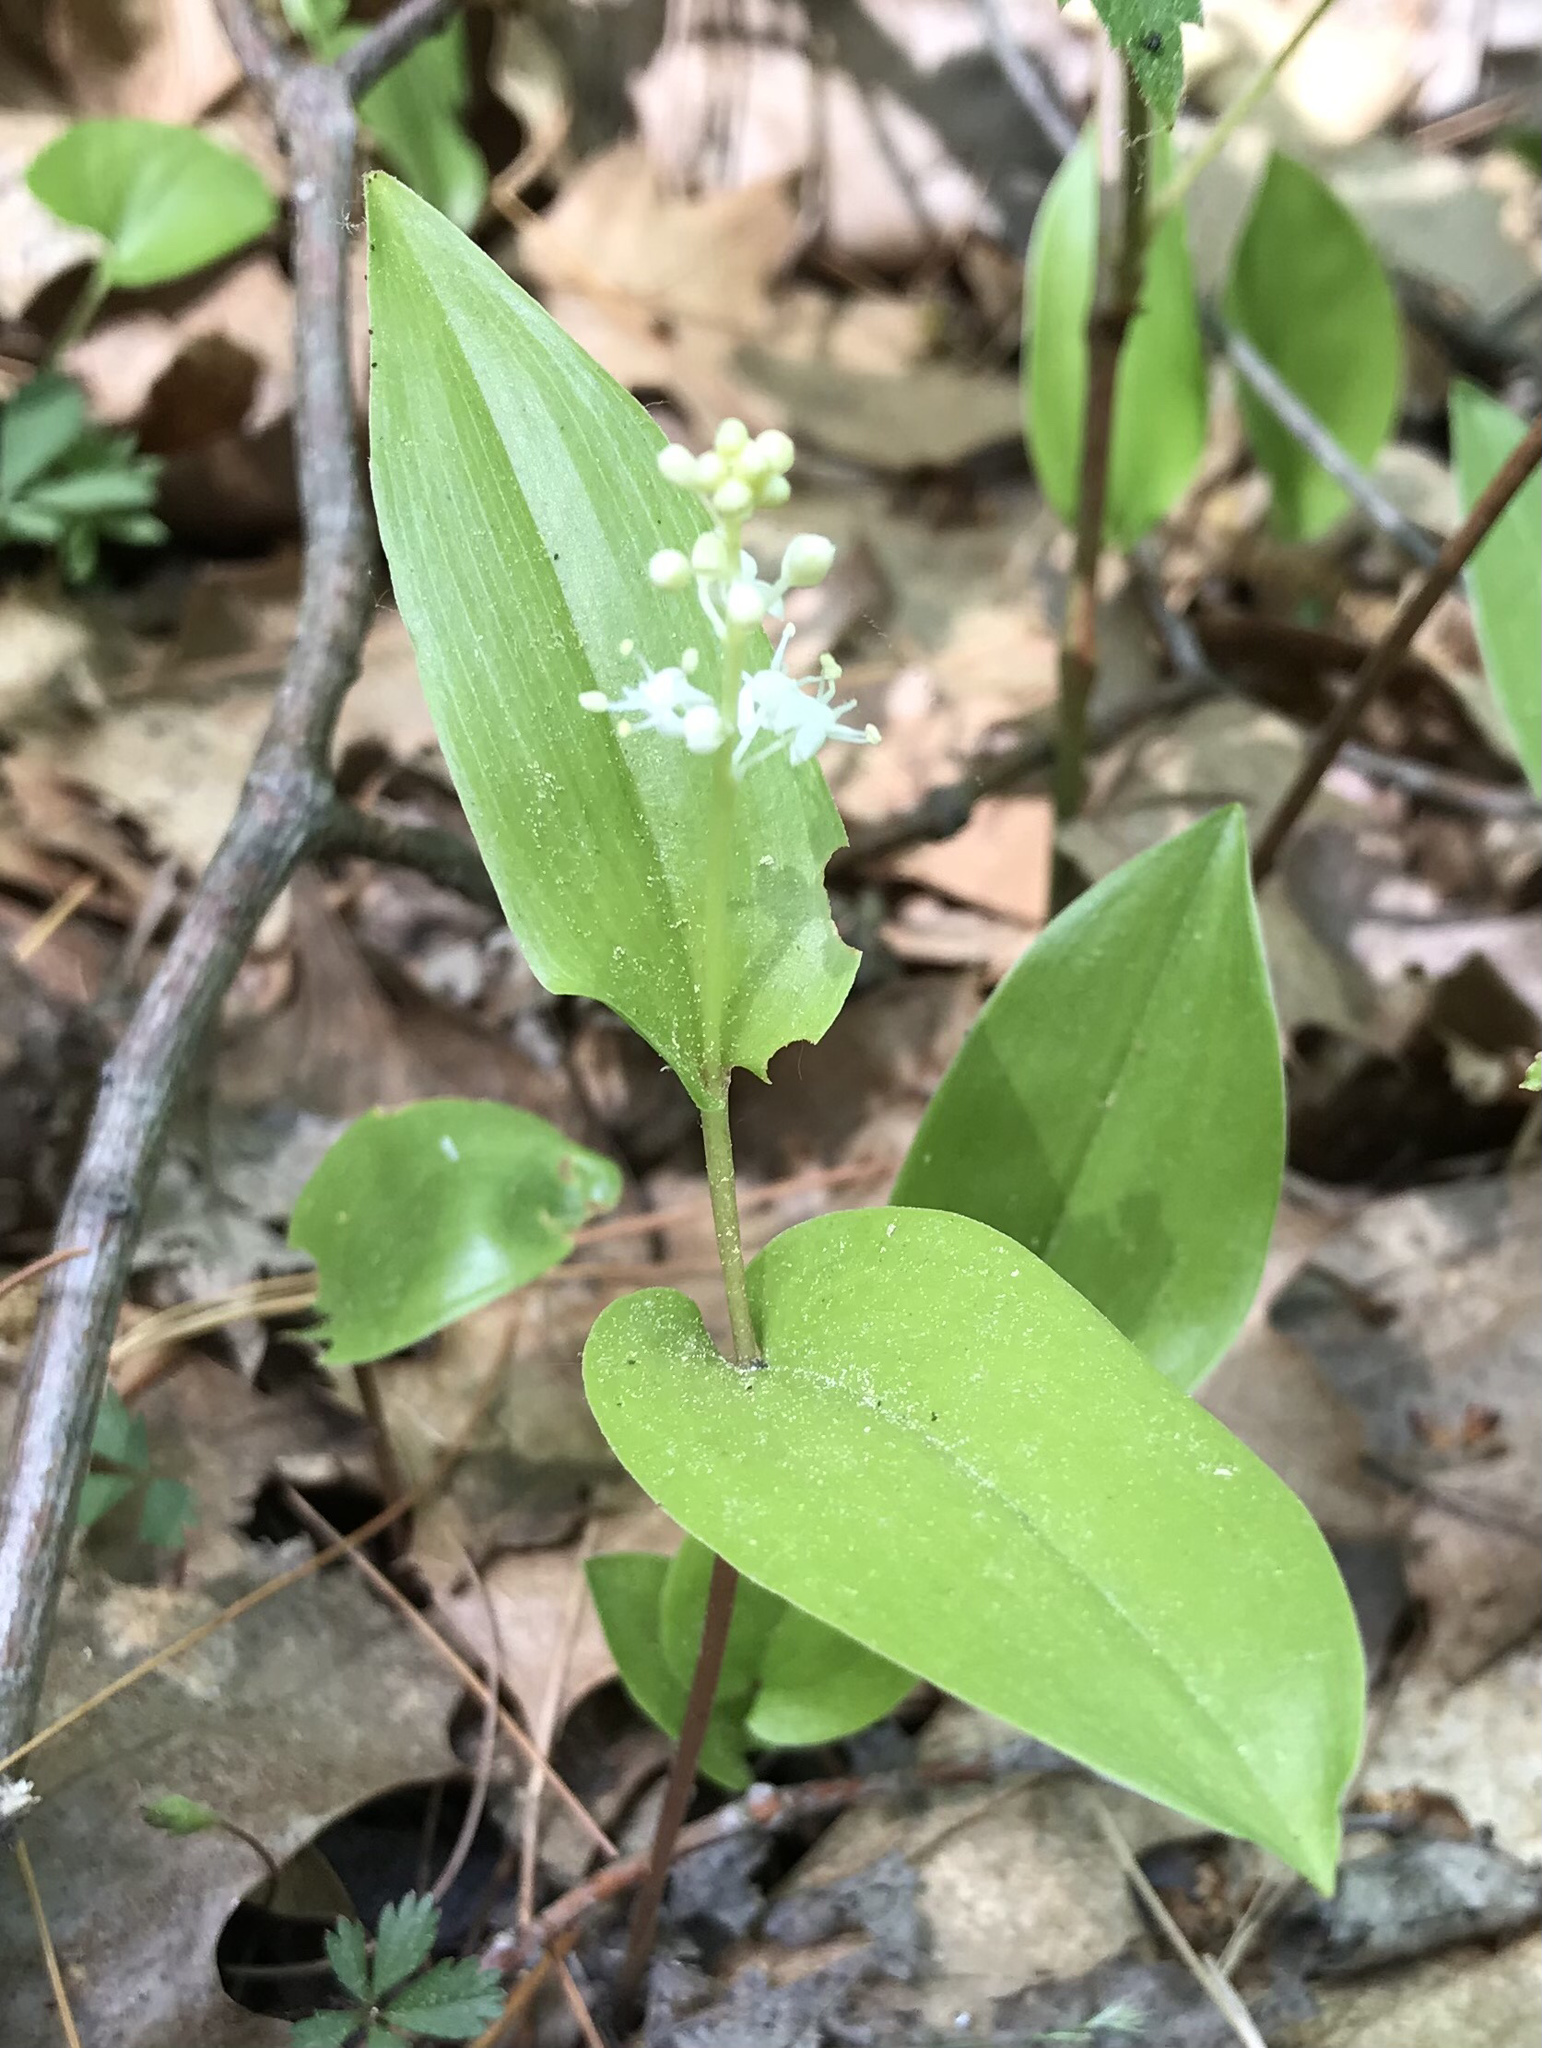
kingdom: Plantae
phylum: Tracheophyta
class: Liliopsida
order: Asparagales
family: Asparagaceae
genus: Maianthemum
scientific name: Maianthemum canadense
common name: False lily-of-the-valley
